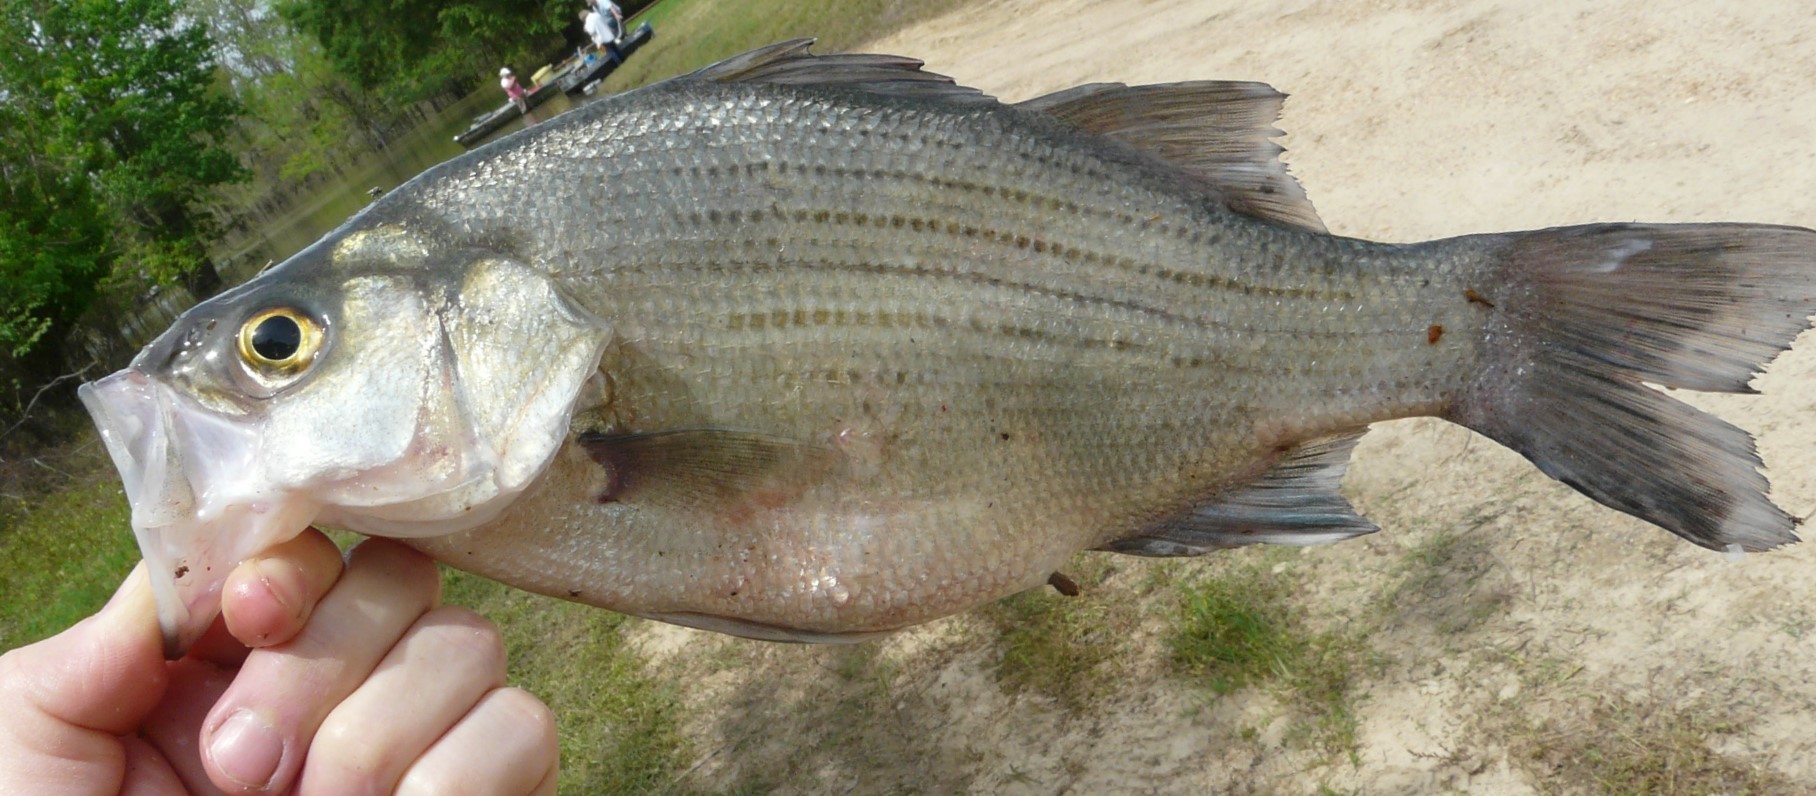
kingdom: Animalia
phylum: Chordata
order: Perciformes
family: Moronidae
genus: Morone
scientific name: Morone chrysops
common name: White bass
